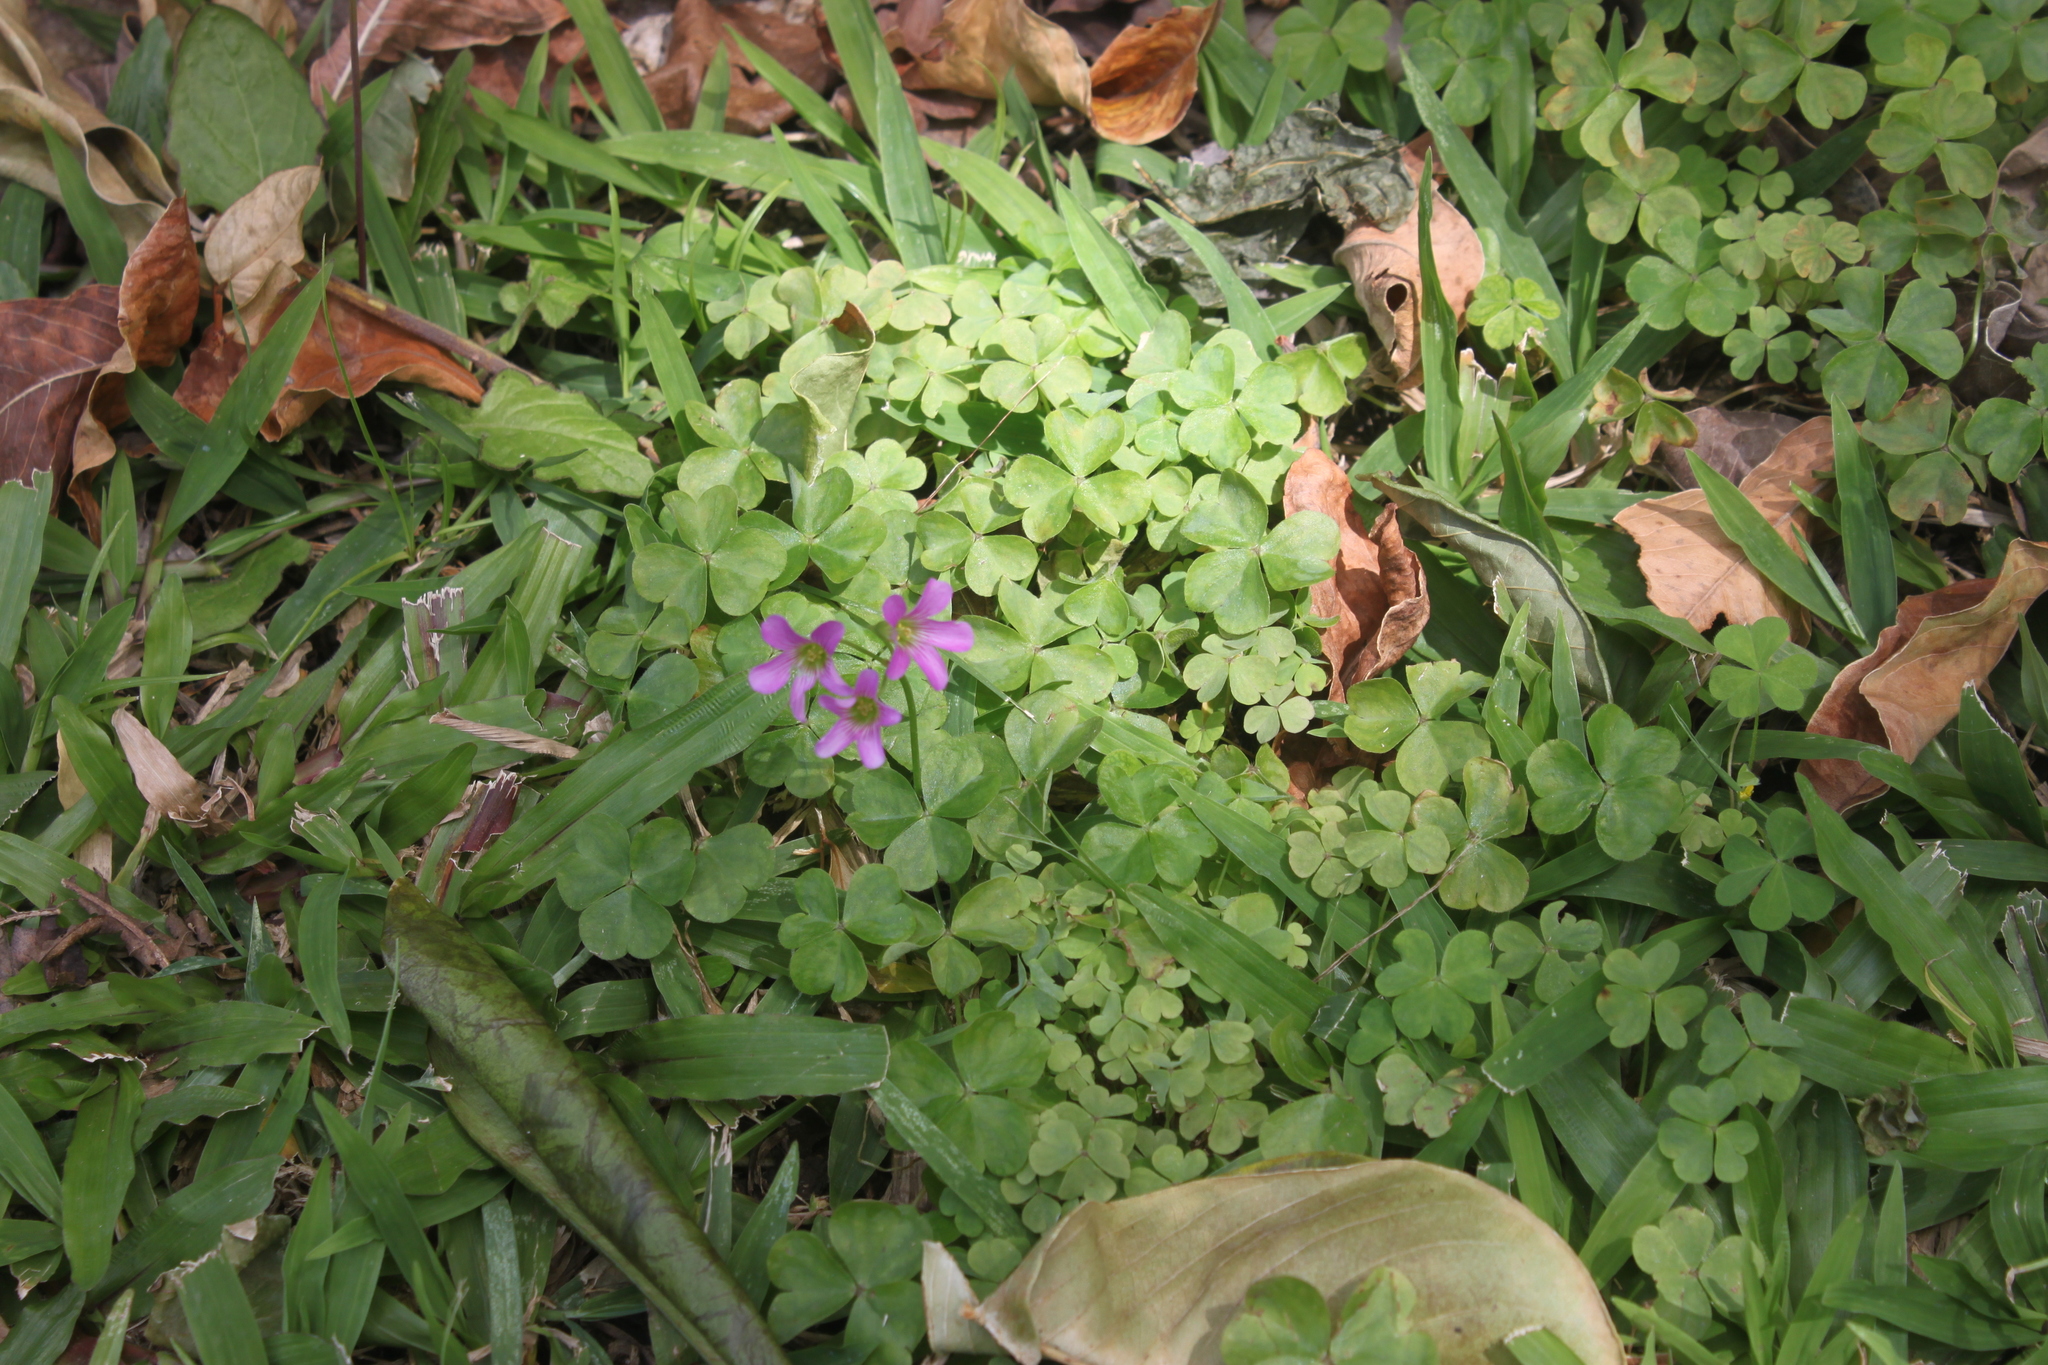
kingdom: Plantae
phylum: Tracheophyta
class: Magnoliopsida
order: Oxalidales
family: Oxalidaceae
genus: Oxalis
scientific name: Oxalis debilis
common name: Large-flowered pink-sorrel
